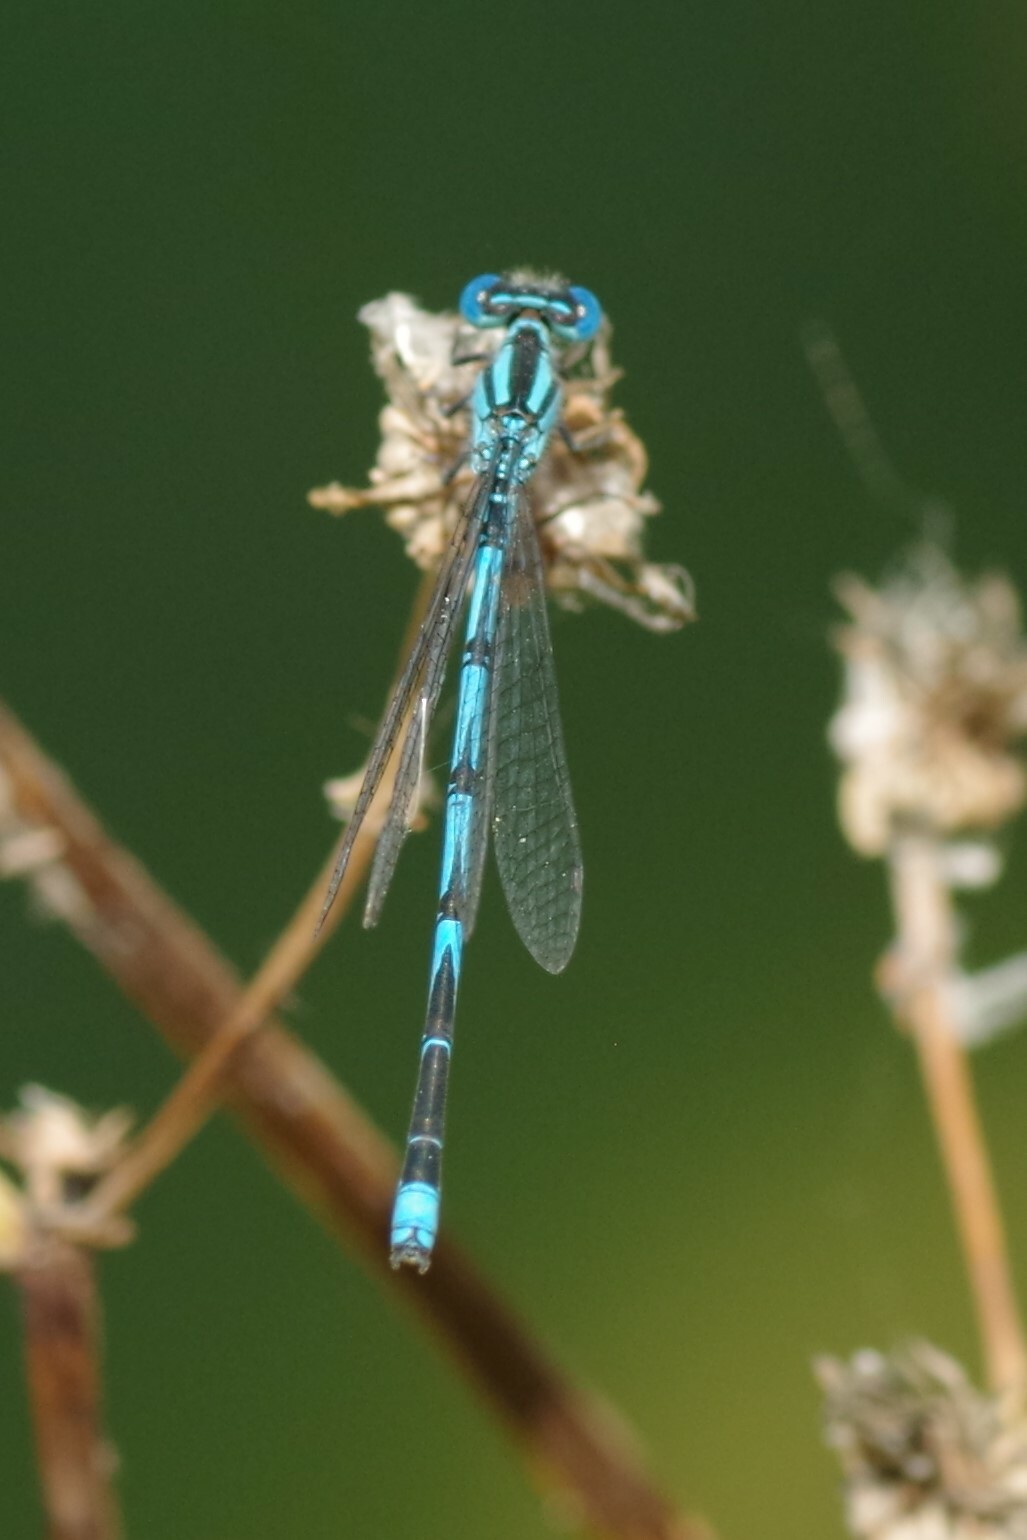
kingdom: Animalia
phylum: Arthropoda
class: Insecta
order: Odonata
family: Coenagrionidae
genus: Erythromma
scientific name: Erythromma lindenii
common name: Blue-eye
